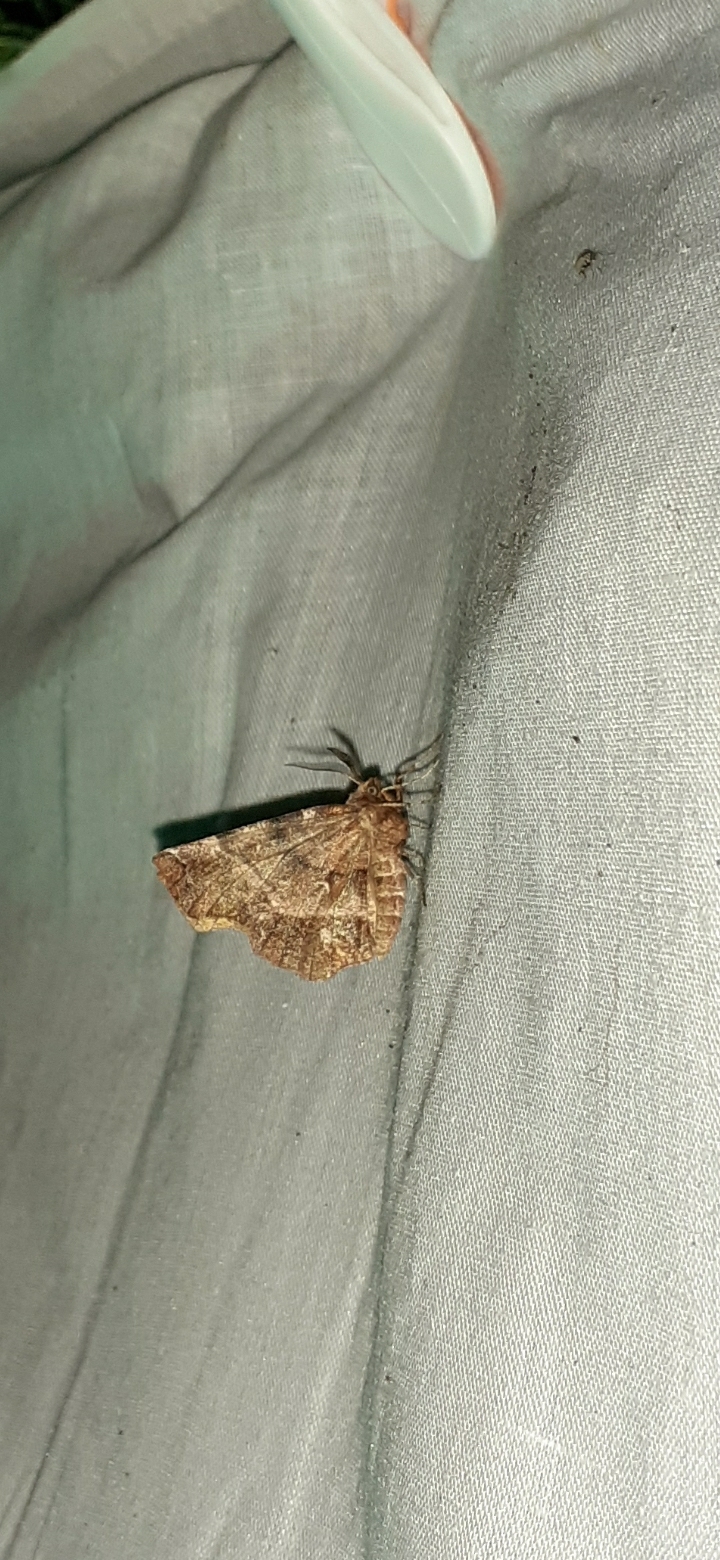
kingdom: Animalia
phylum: Arthropoda
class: Insecta
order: Lepidoptera
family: Geometridae
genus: Selenia
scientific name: Selenia dentaria
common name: Early thorn
